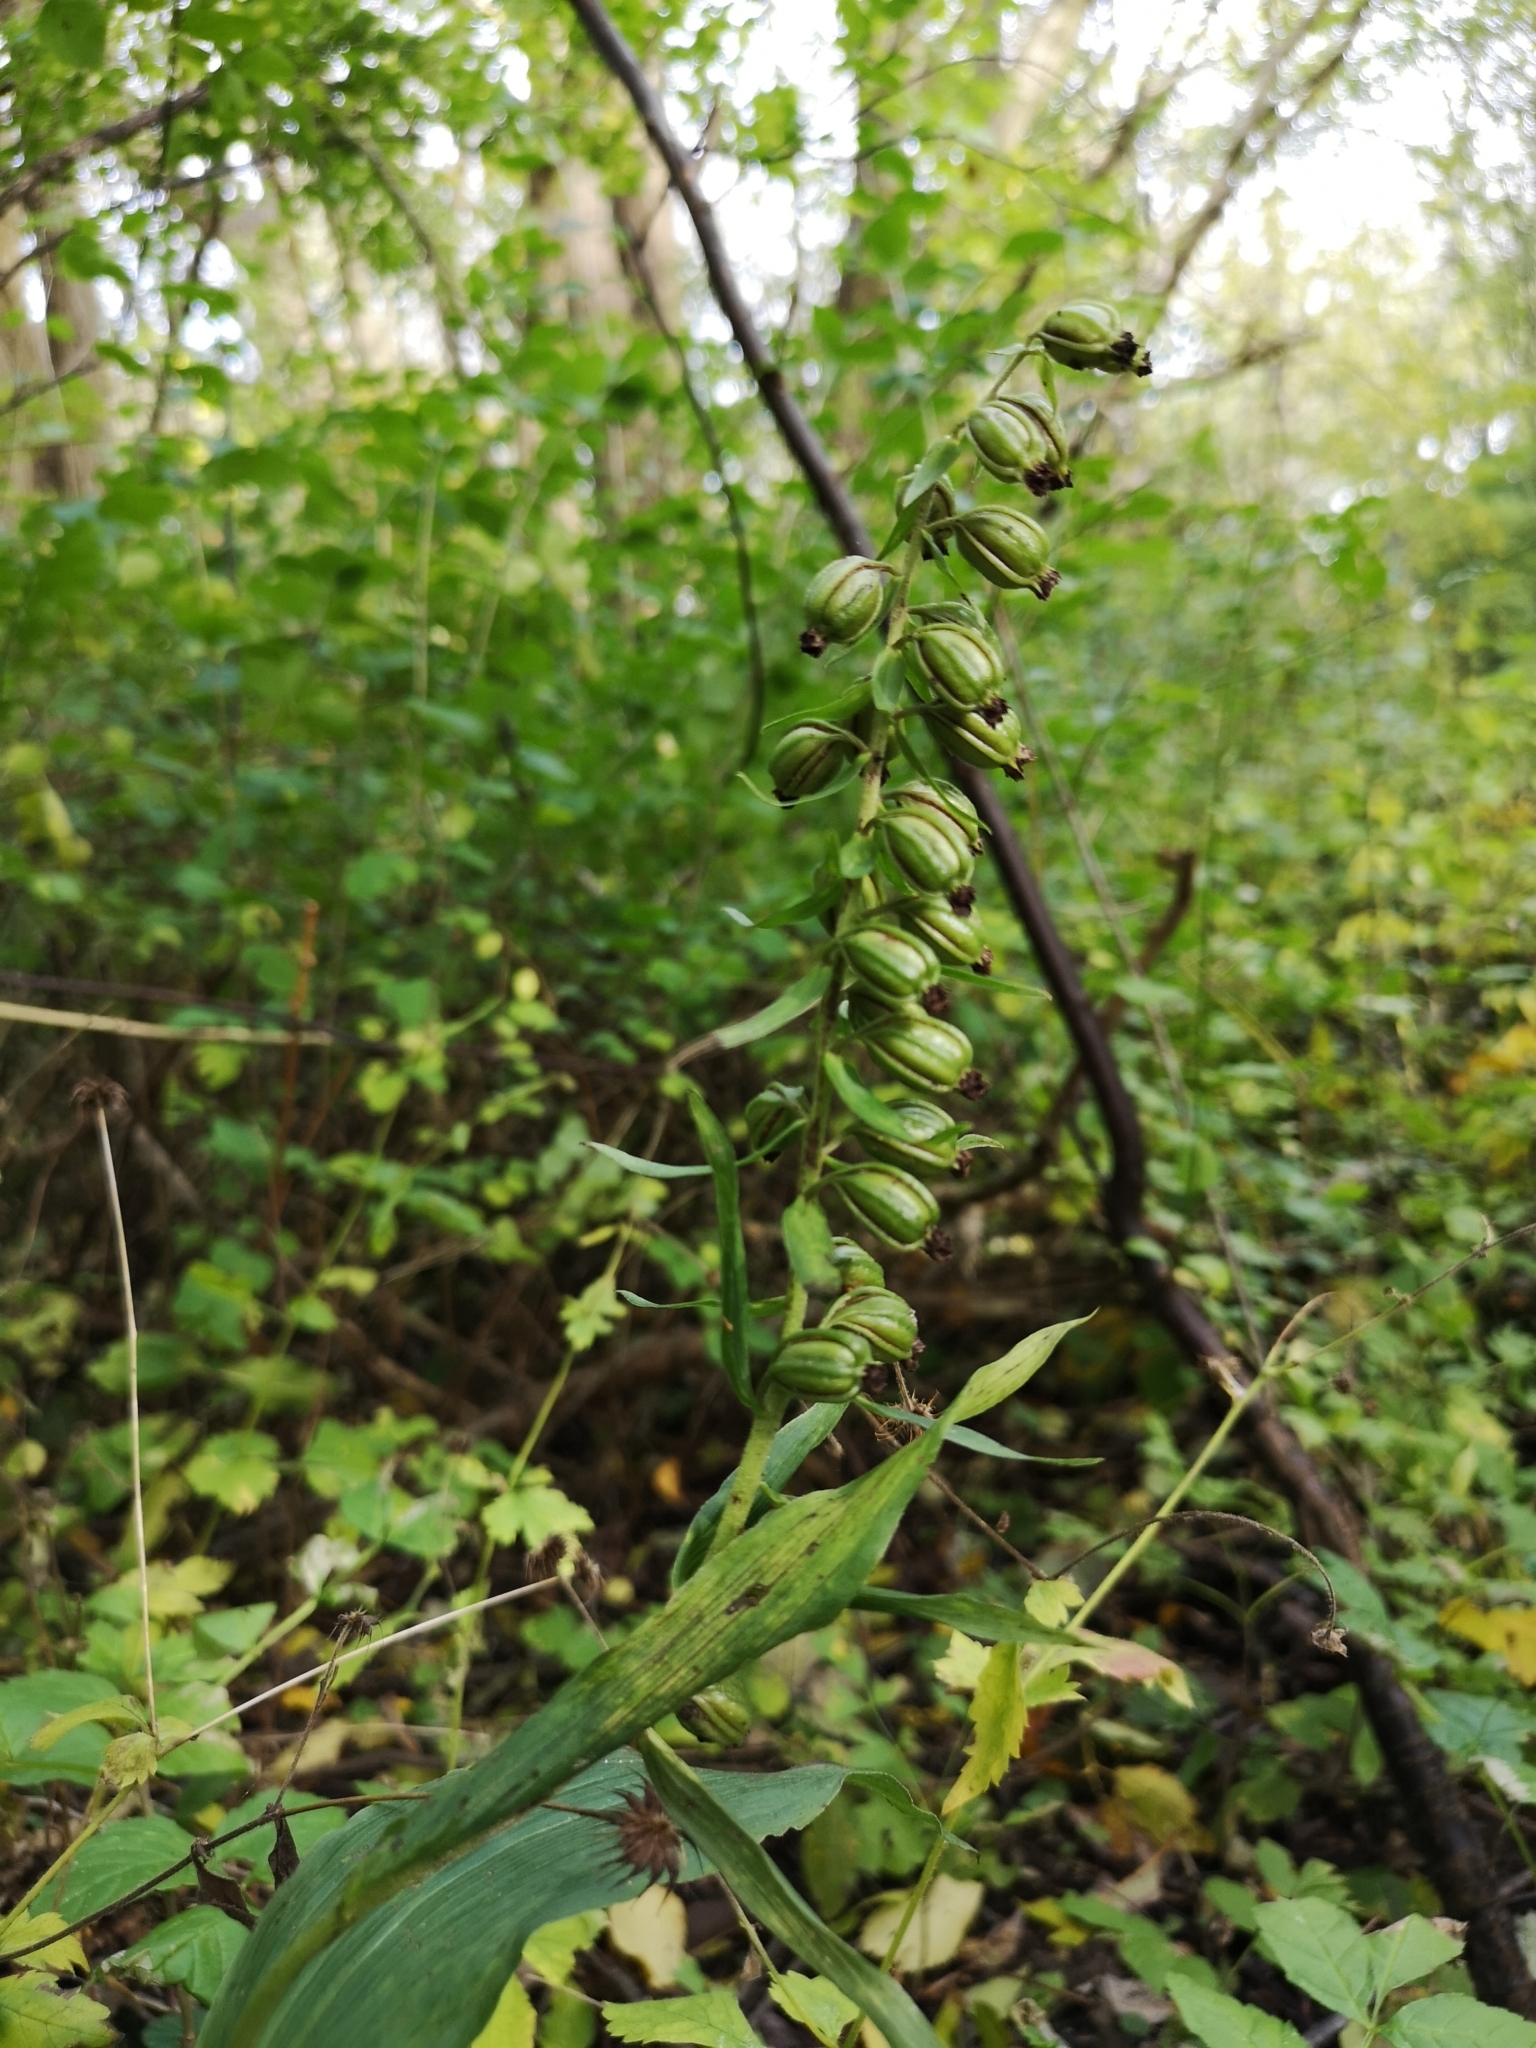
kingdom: Plantae
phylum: Tracheophyta
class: Liliopsida
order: Asparagales
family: Orchidaceae
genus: Epipactis
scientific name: Epipactis helleborine
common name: Broad-leaved helleborine
